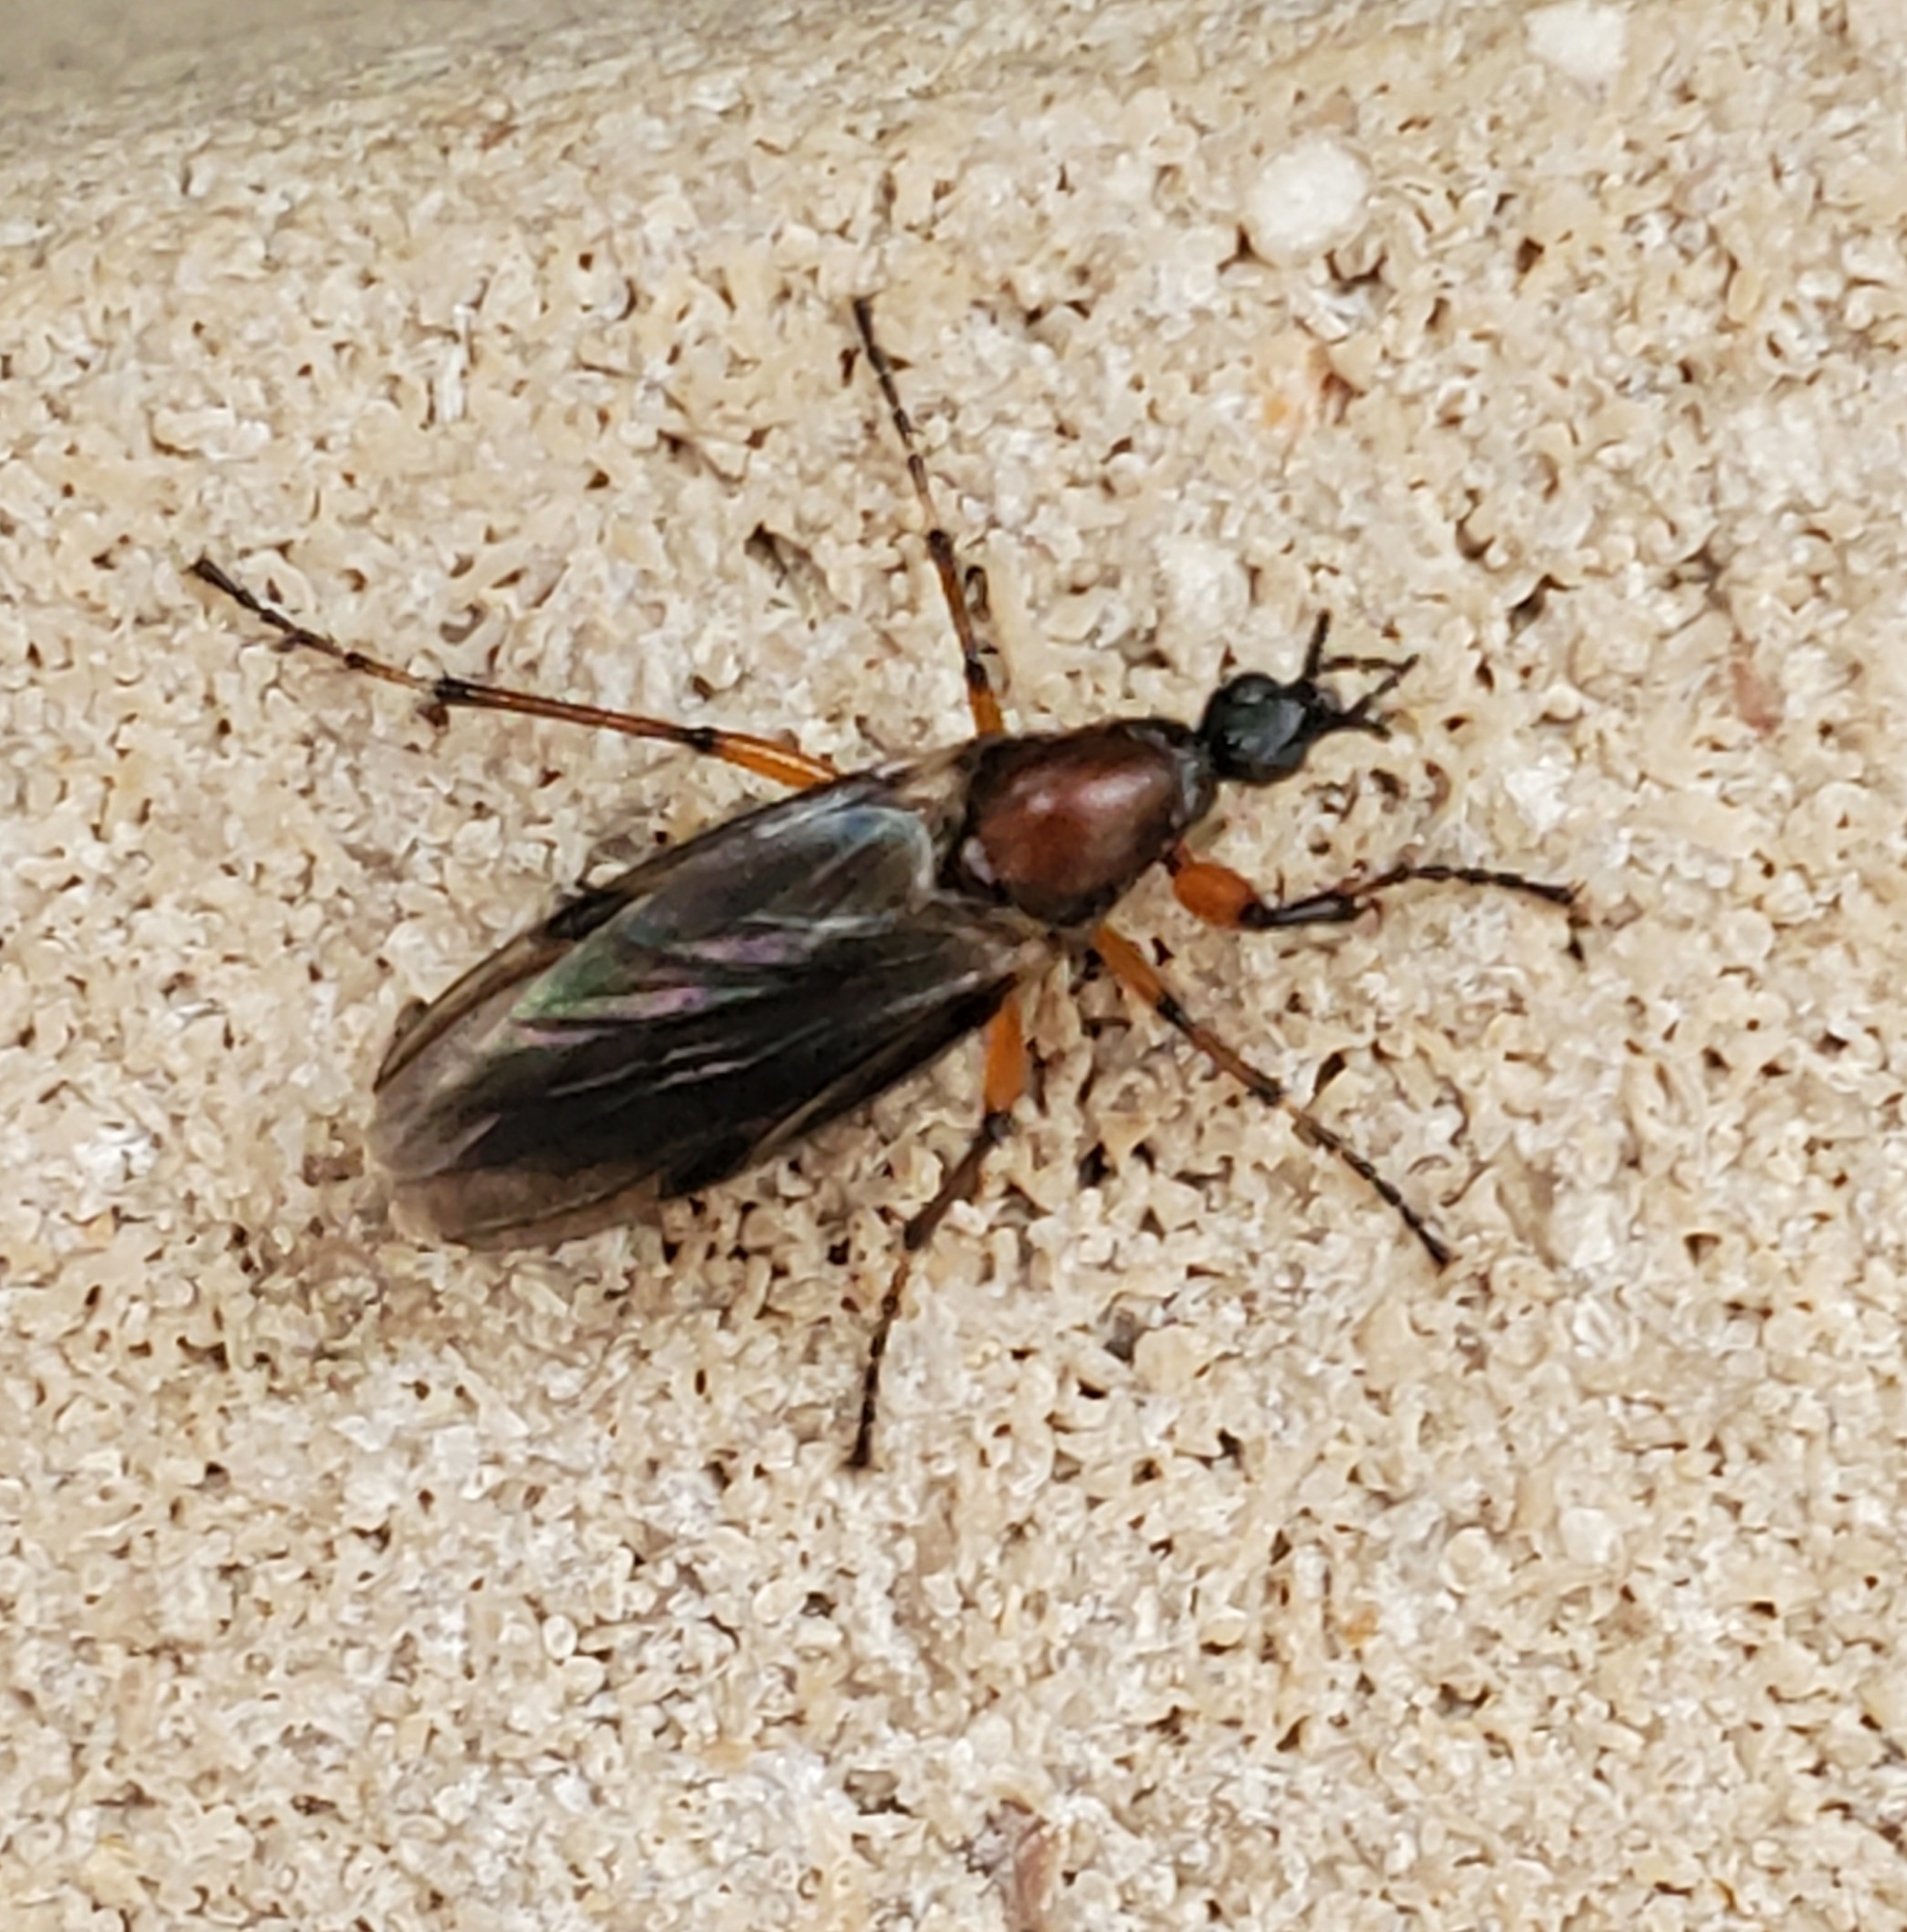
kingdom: Animalia
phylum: Arthropoda
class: Insecta
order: Diptera
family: Bibionidae
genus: Bibio
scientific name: Bibio articulatus
